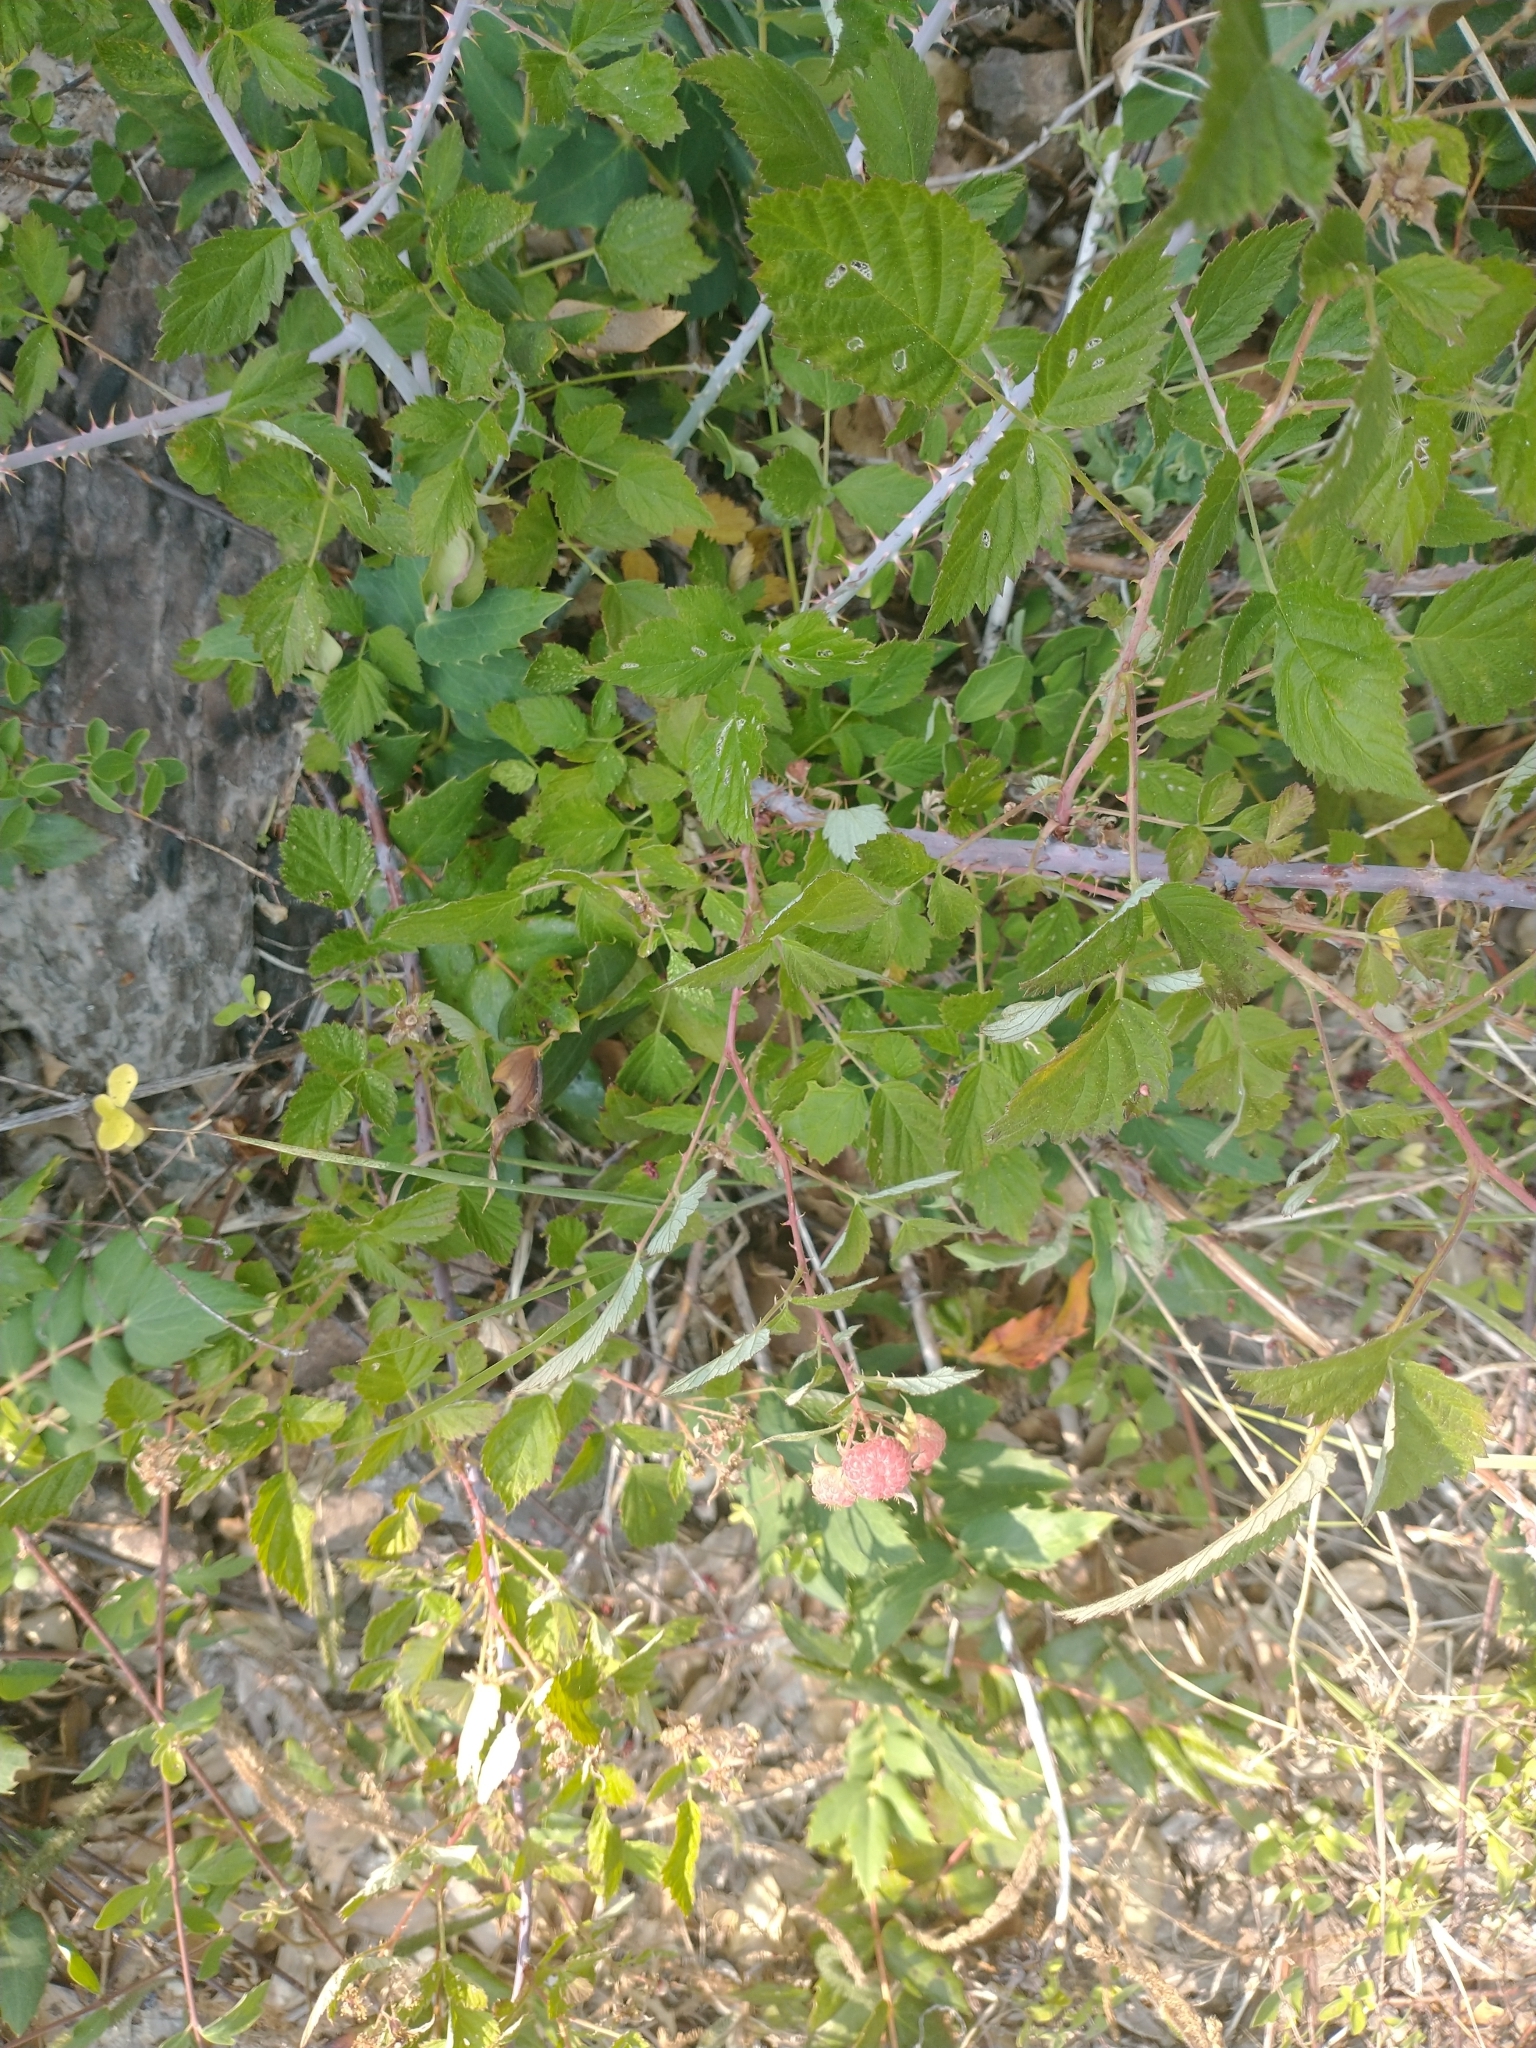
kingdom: Plantae
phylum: Tracheophyta
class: Magnoliopsida
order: Rosales
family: Rosaceae
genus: Rubus
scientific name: Rubus leucodermis
